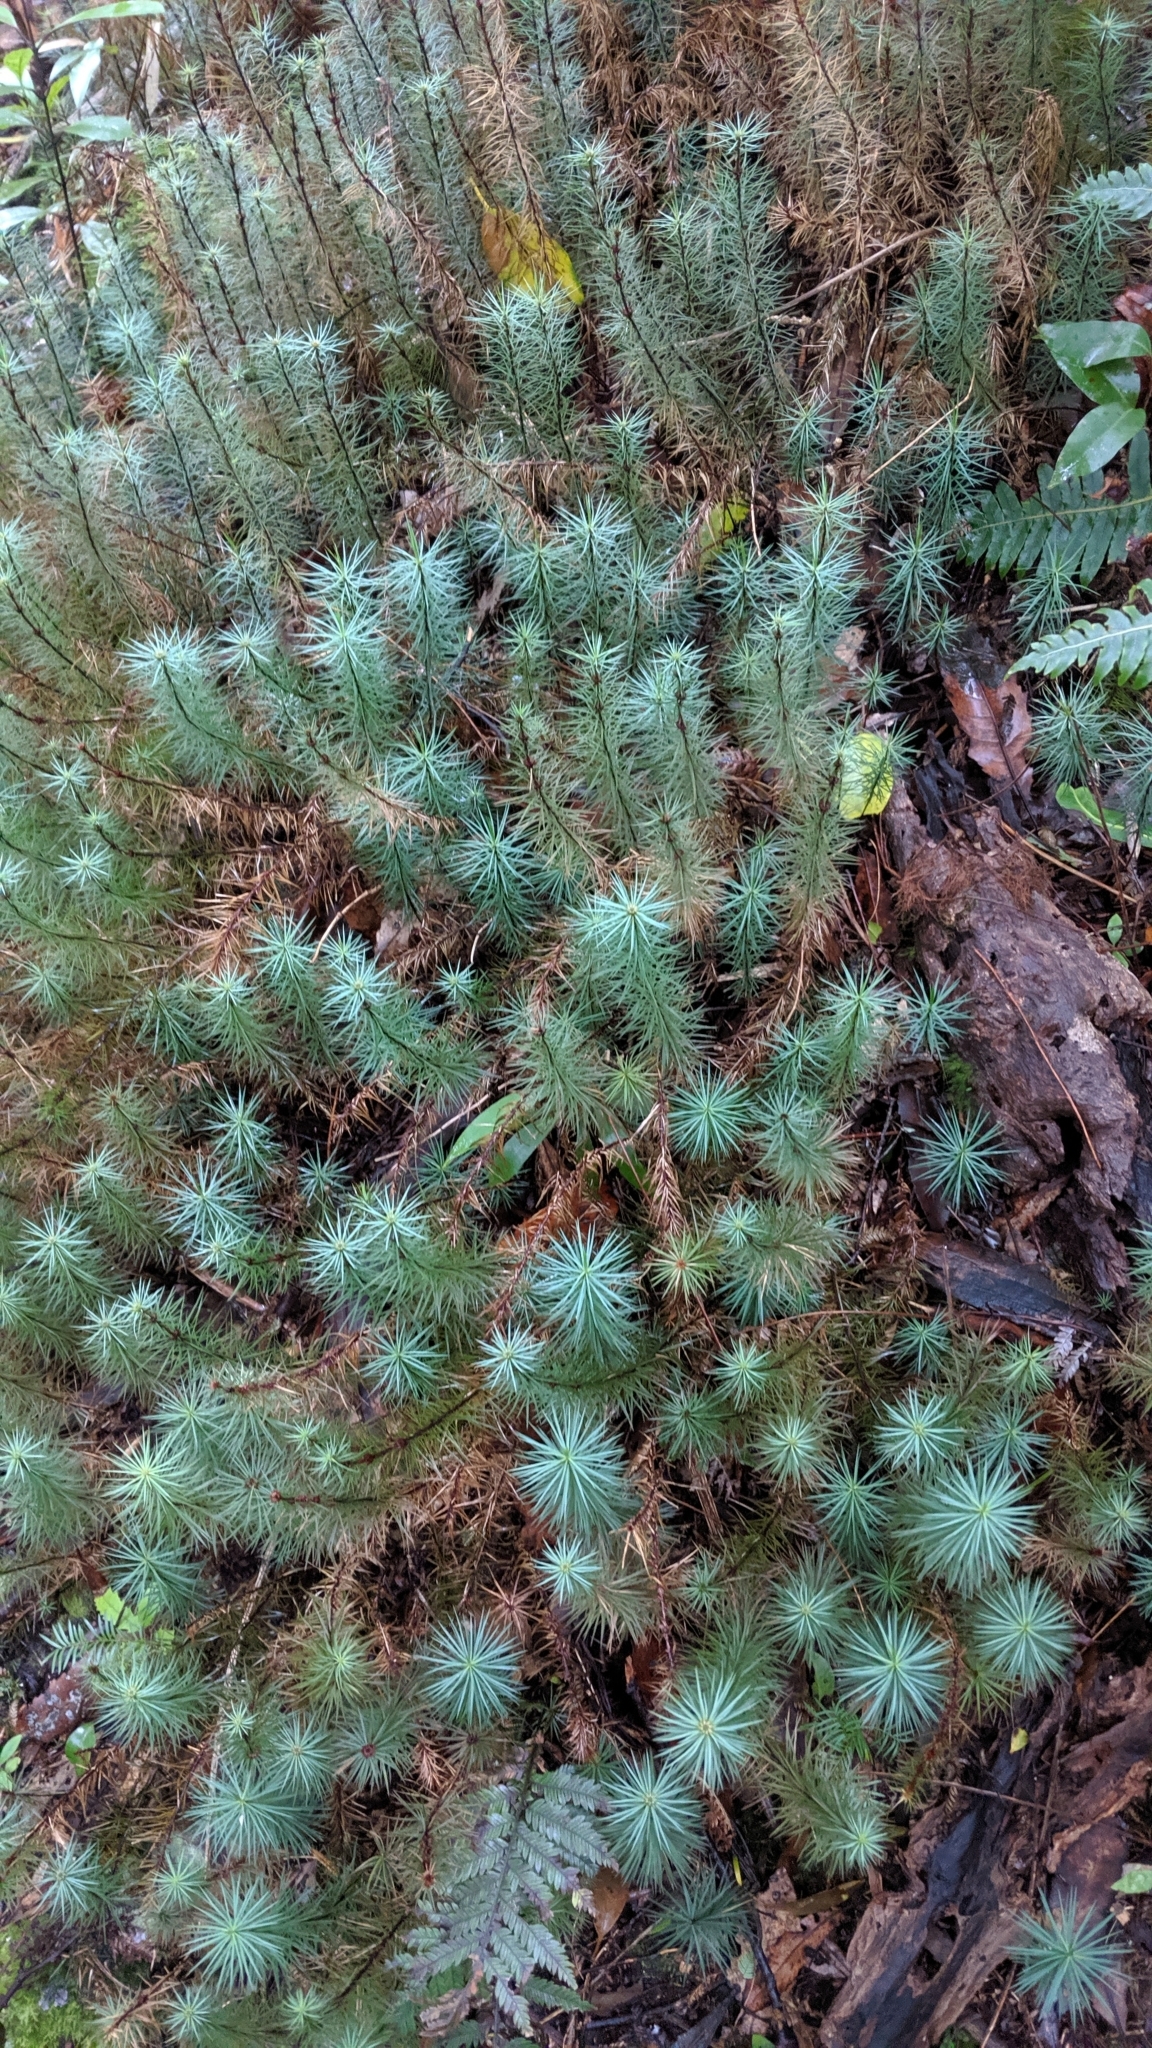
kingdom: Plantae
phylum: Bryophyta
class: Polytrichopsida
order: Polytrichales
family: Polytrichaceae
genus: Dawsonia
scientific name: Dawsonia superba
